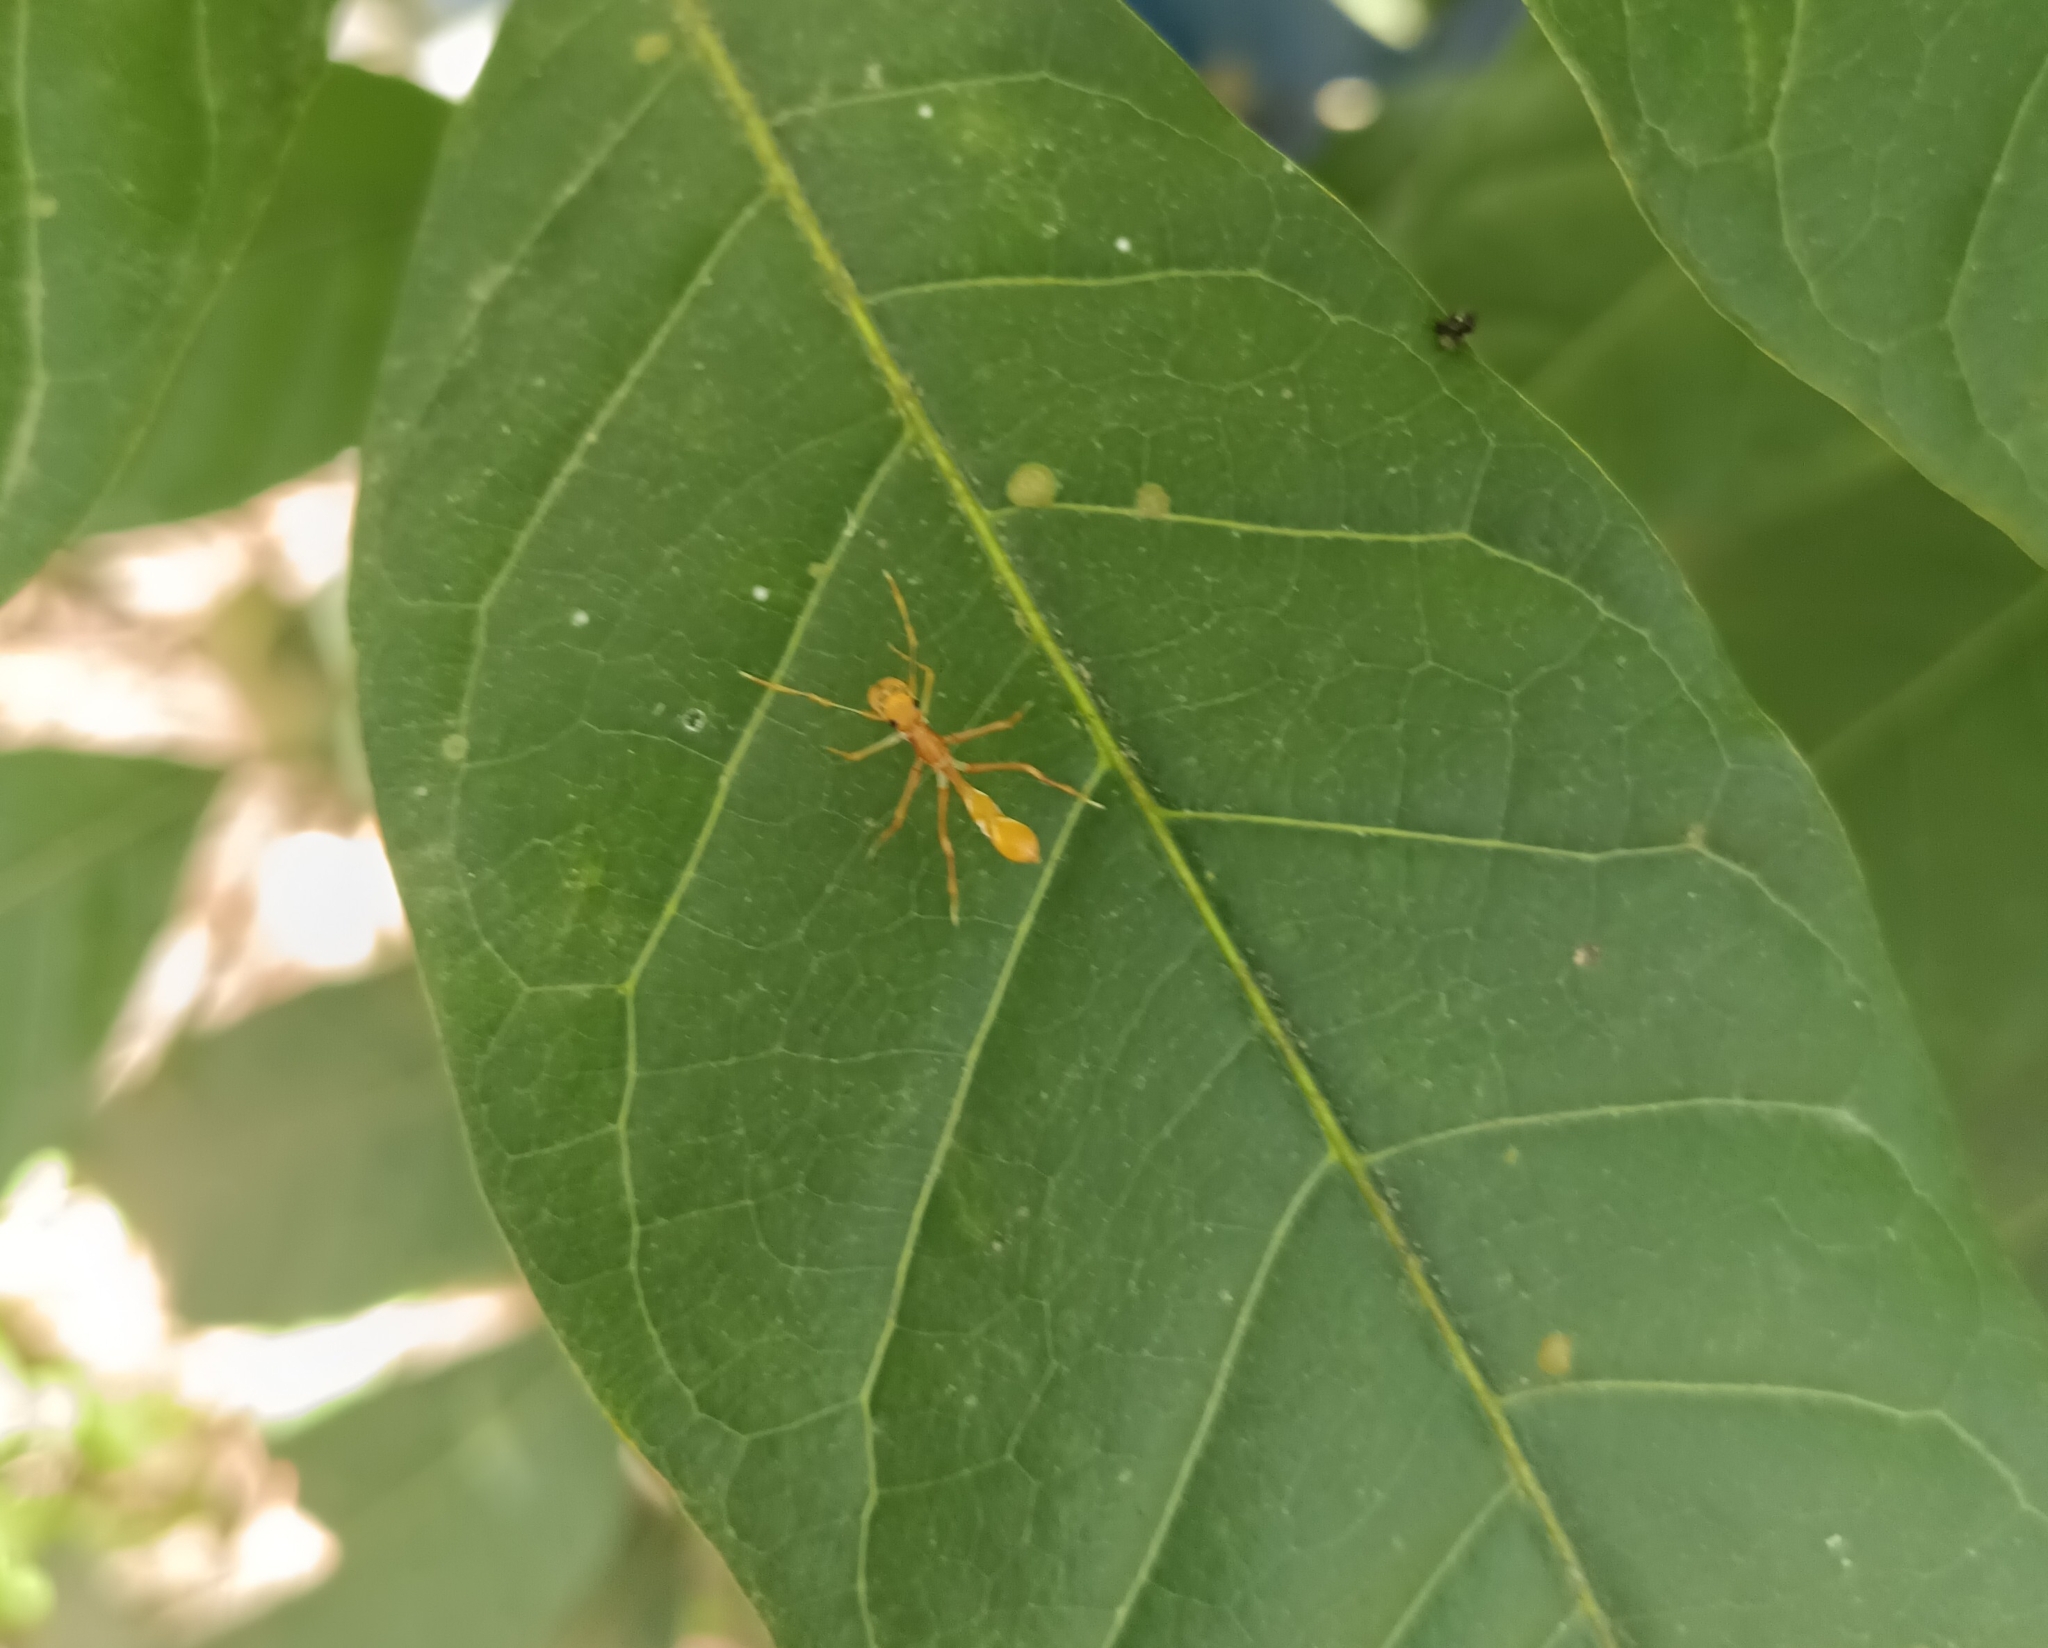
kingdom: Animalia
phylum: Arthropoda
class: Arachnida
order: Araneae
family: Salticidae
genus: Myrmaplata
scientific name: Myrmaplata plataleoides
